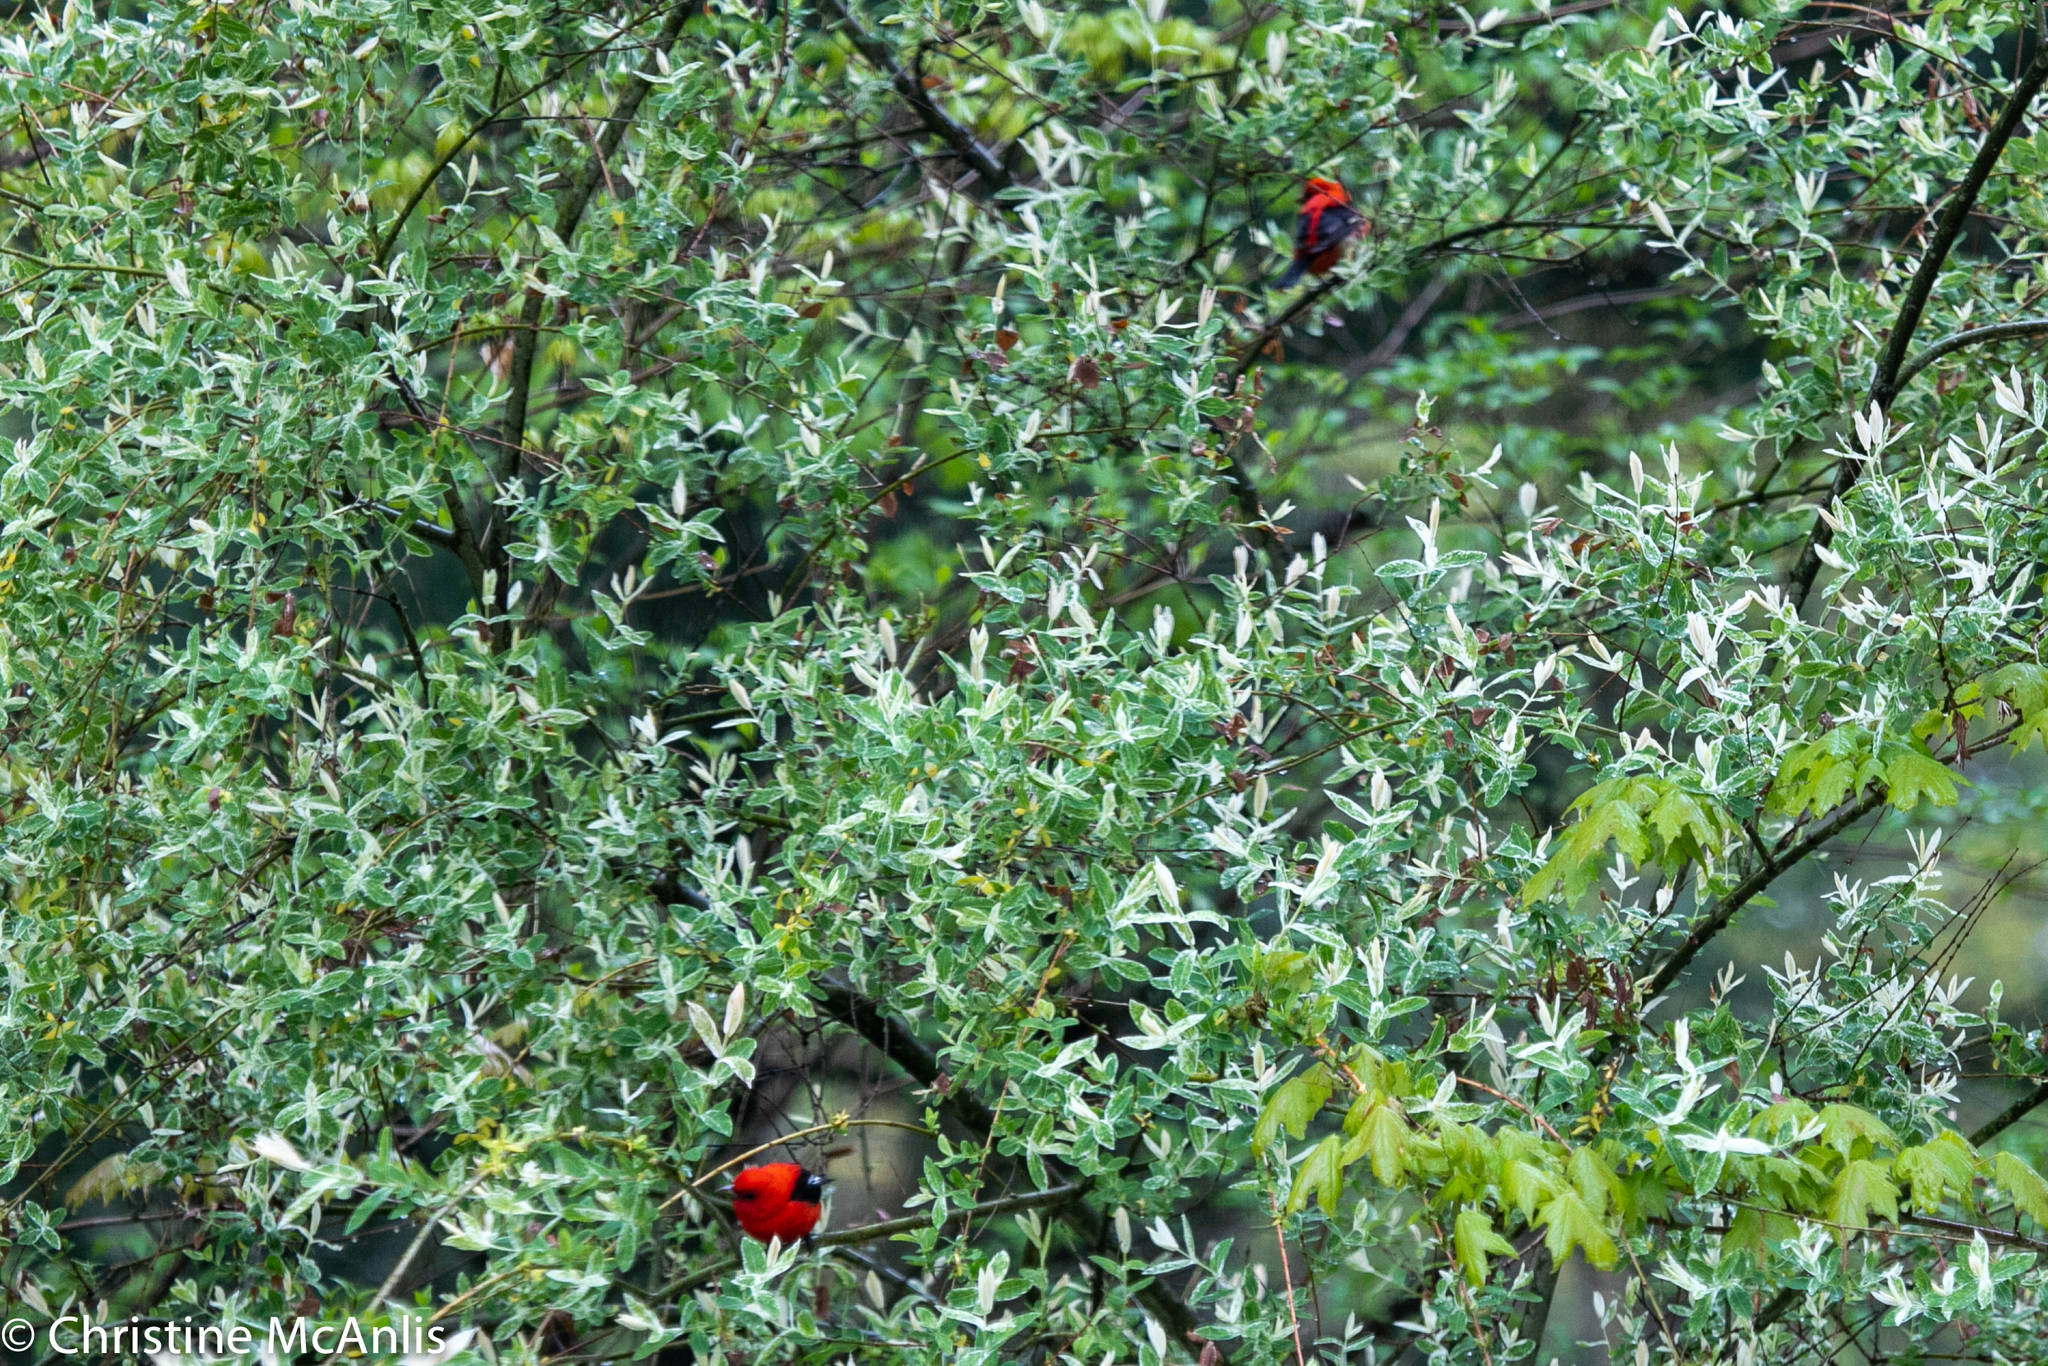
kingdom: Animalia
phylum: Chordata
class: Aves
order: Passeriformes
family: Cardinalidae
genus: Piranga
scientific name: Piranga olivacea
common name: Scarlet tanager
